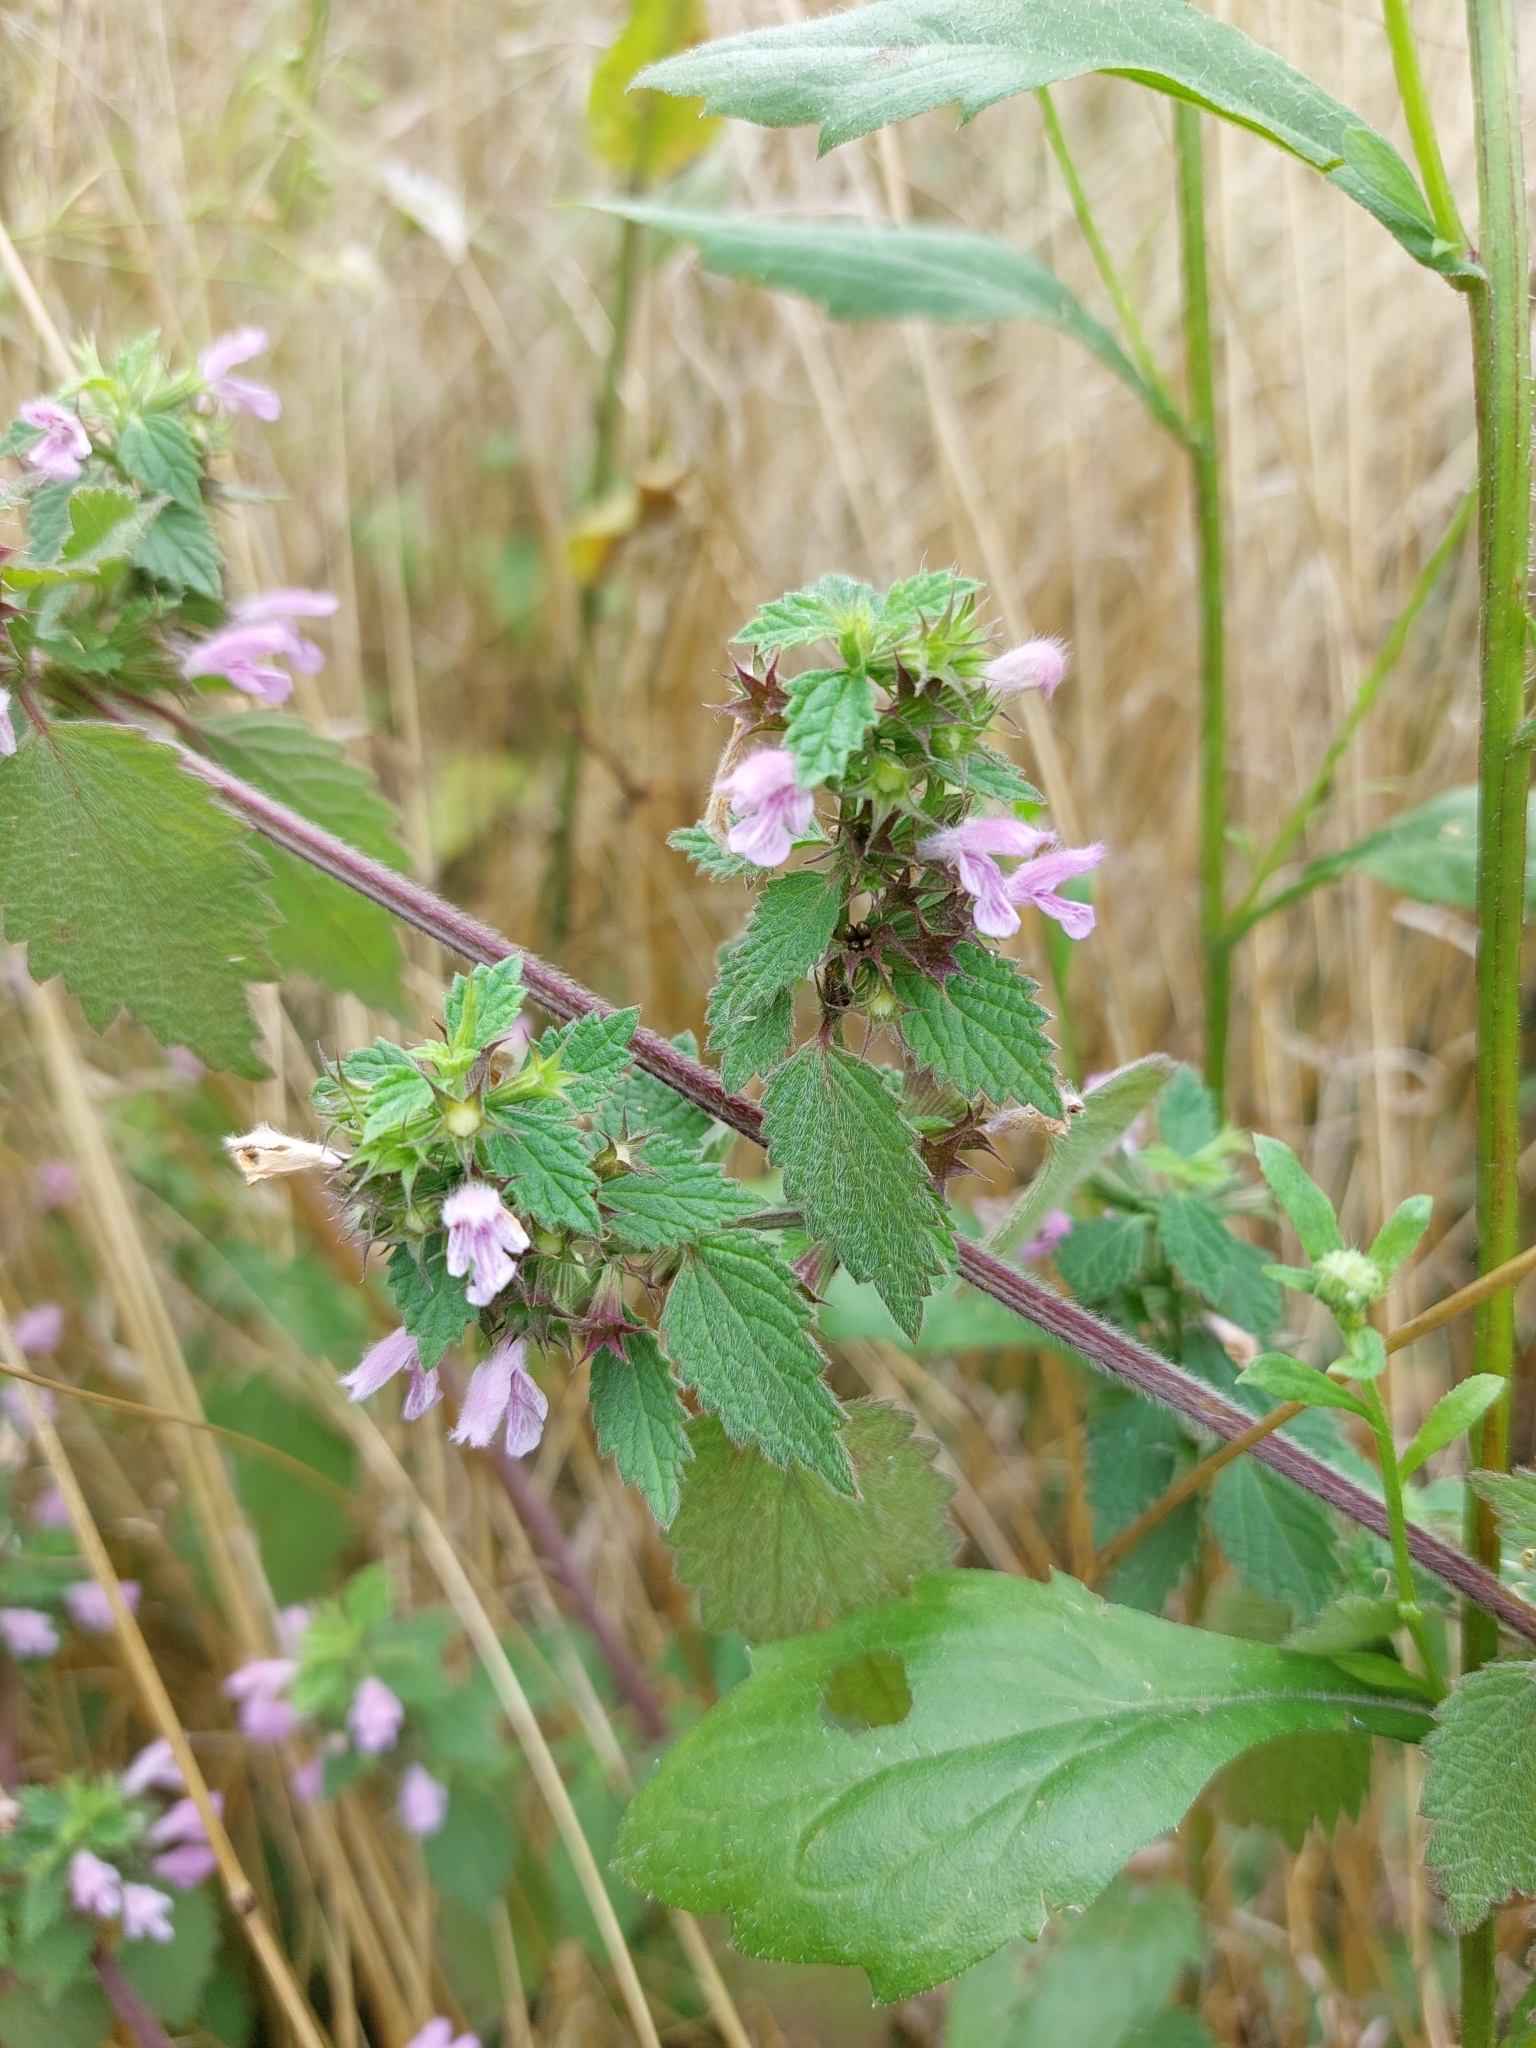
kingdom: Plantae
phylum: Tracheophyta
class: Magnoliopsida
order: Lamiales
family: Lamiaceae
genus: Ballota
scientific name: Ballota nigra
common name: Black horehound
